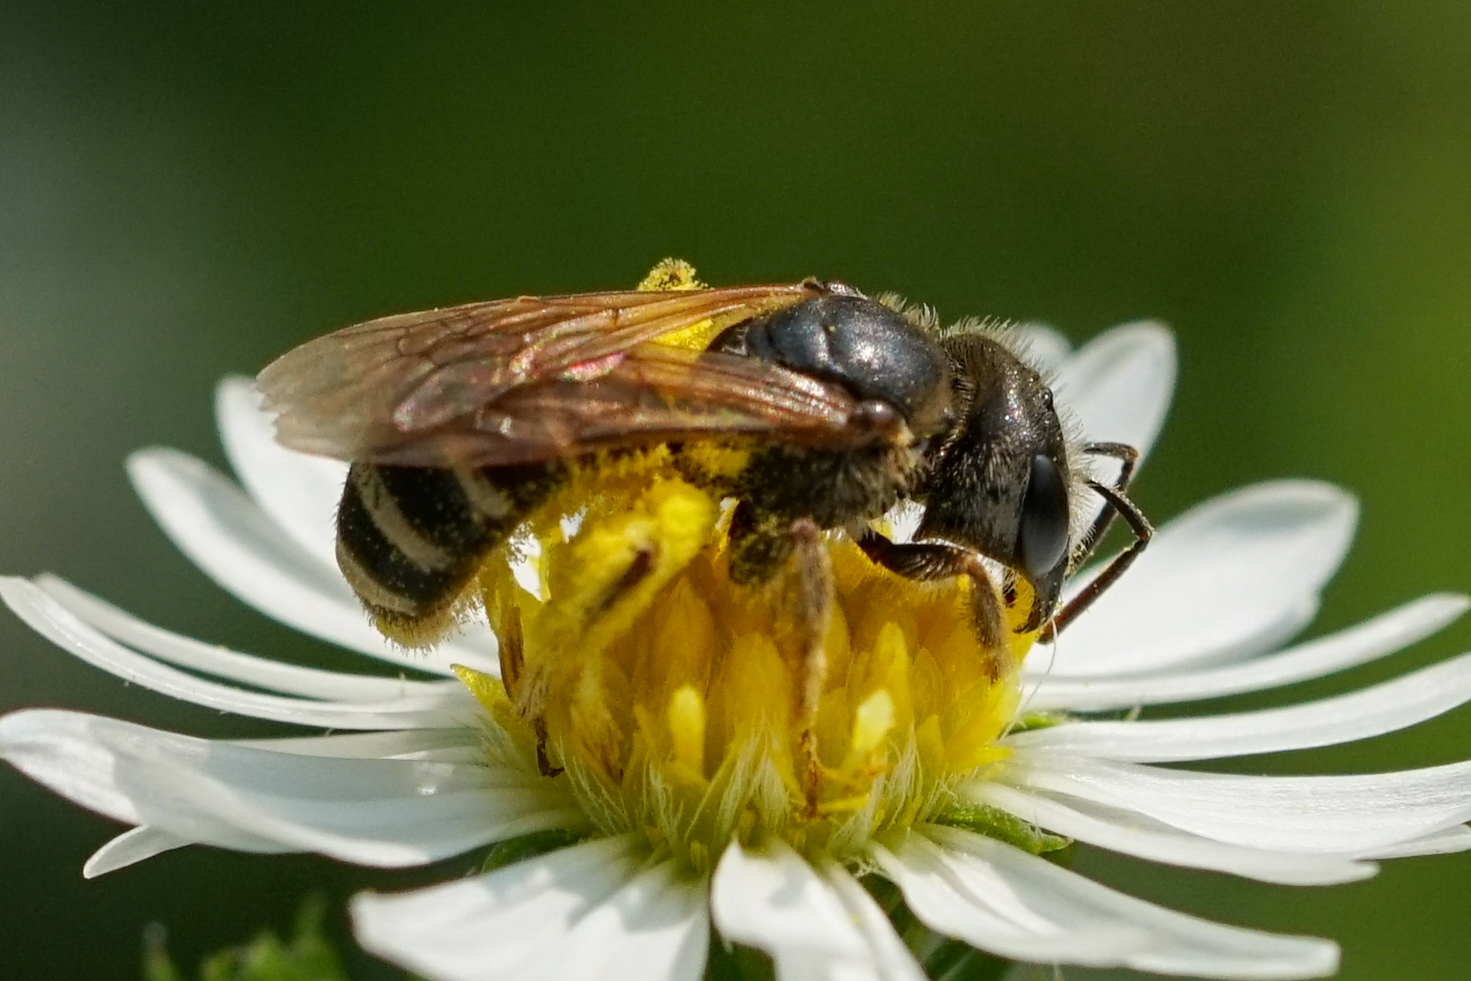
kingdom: Animalia
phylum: Arthropoda
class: Insecta
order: Hymenoptera
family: Halictidae
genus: Halictus
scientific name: Halictus ligatus
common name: Ligated furrow bee
